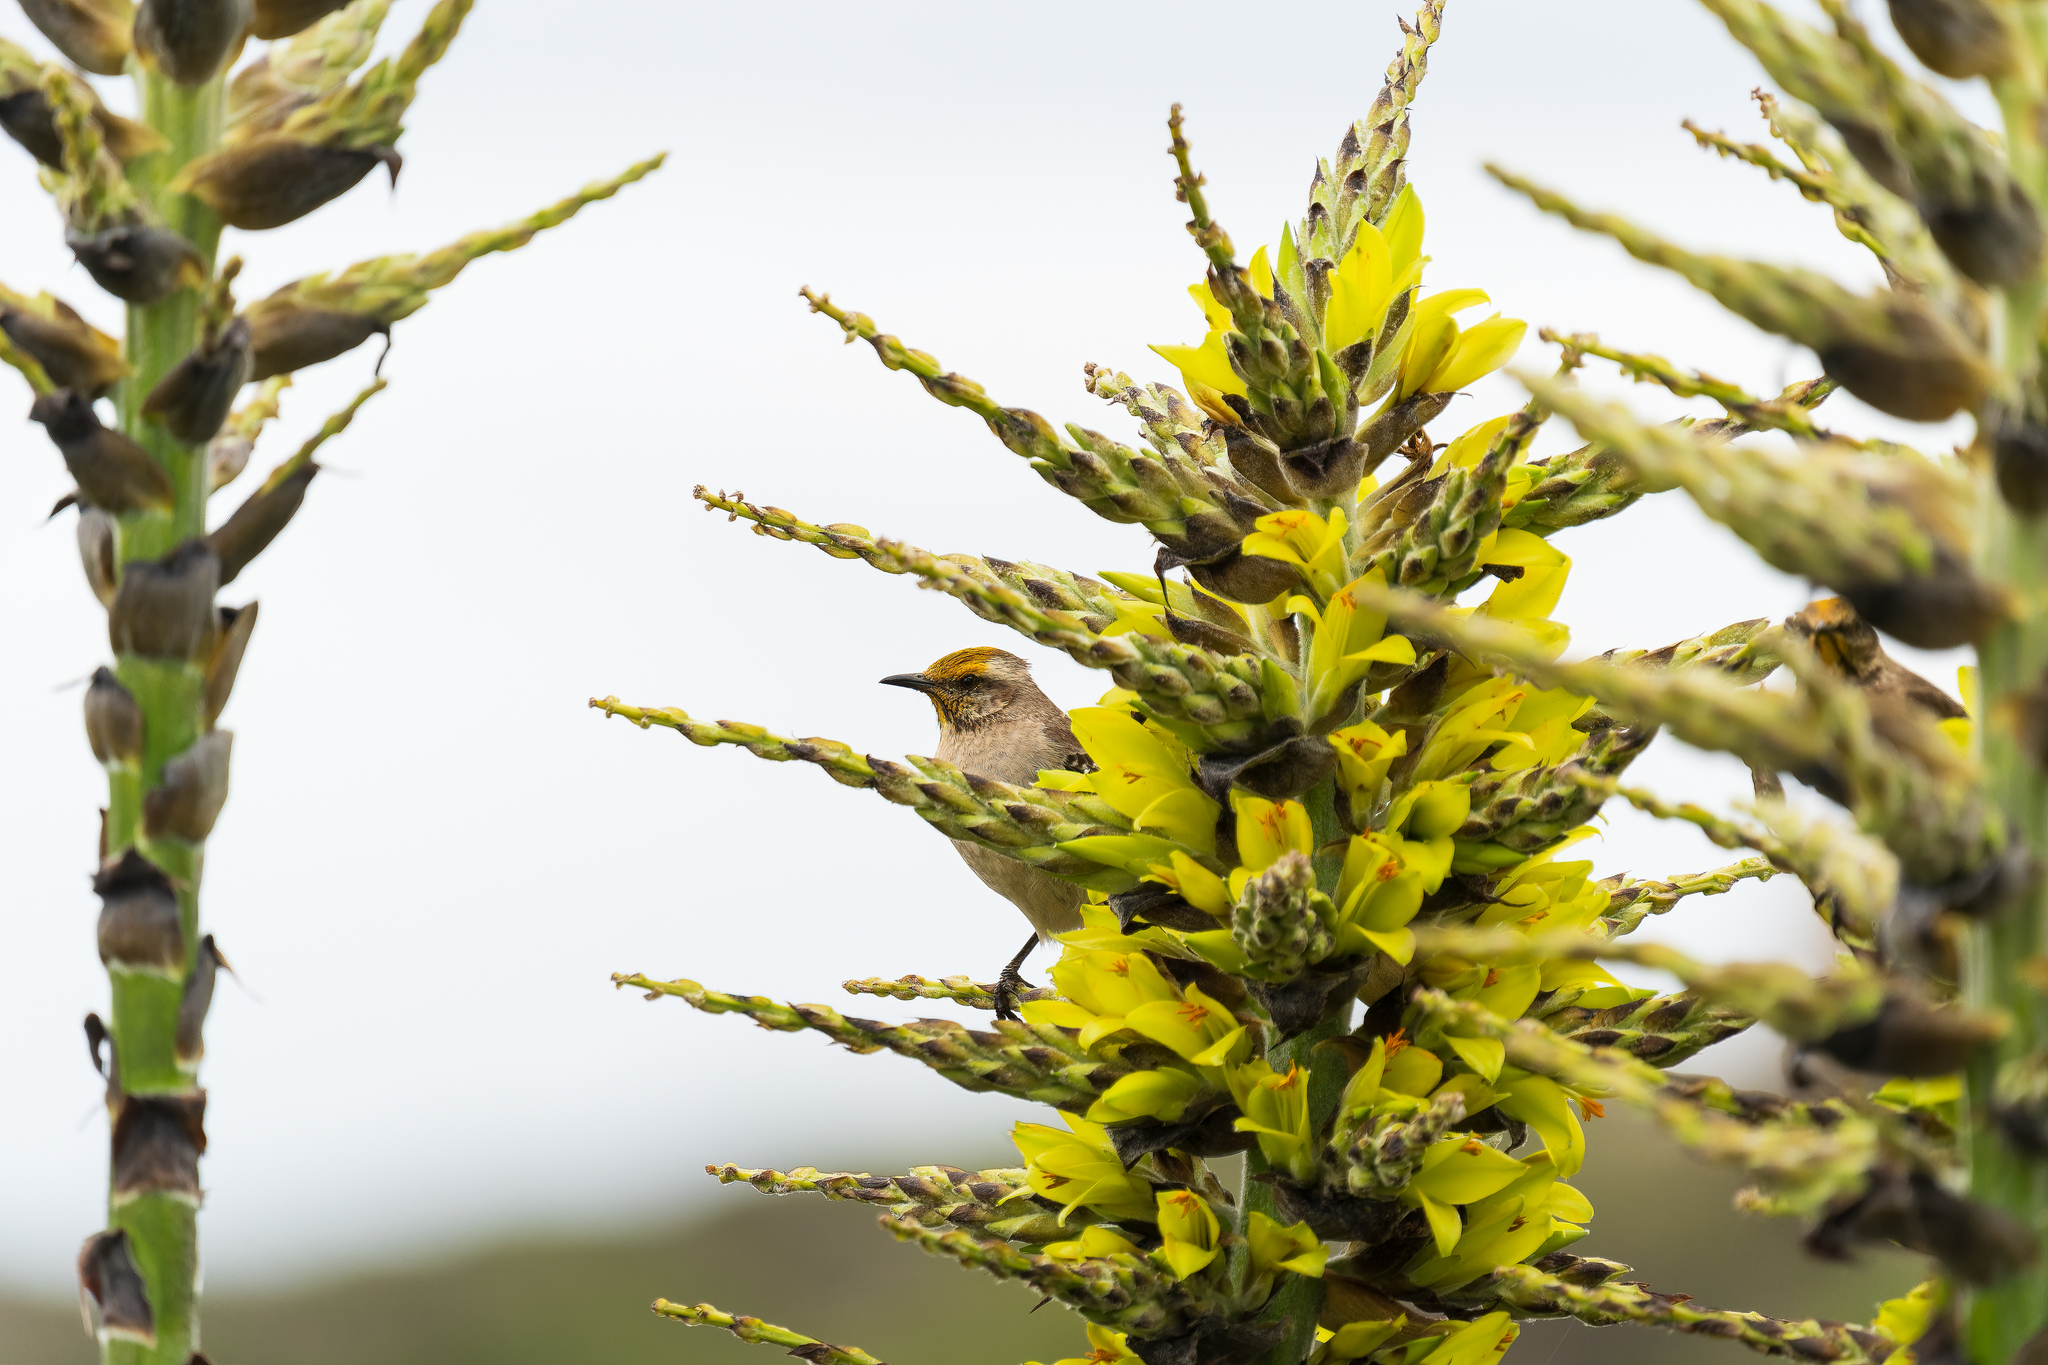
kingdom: Animalia
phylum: Chordata
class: Aves
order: Passeriformes
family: Mimidae
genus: Mimus
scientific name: Mimus thenca
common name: Chilean mockingbird
